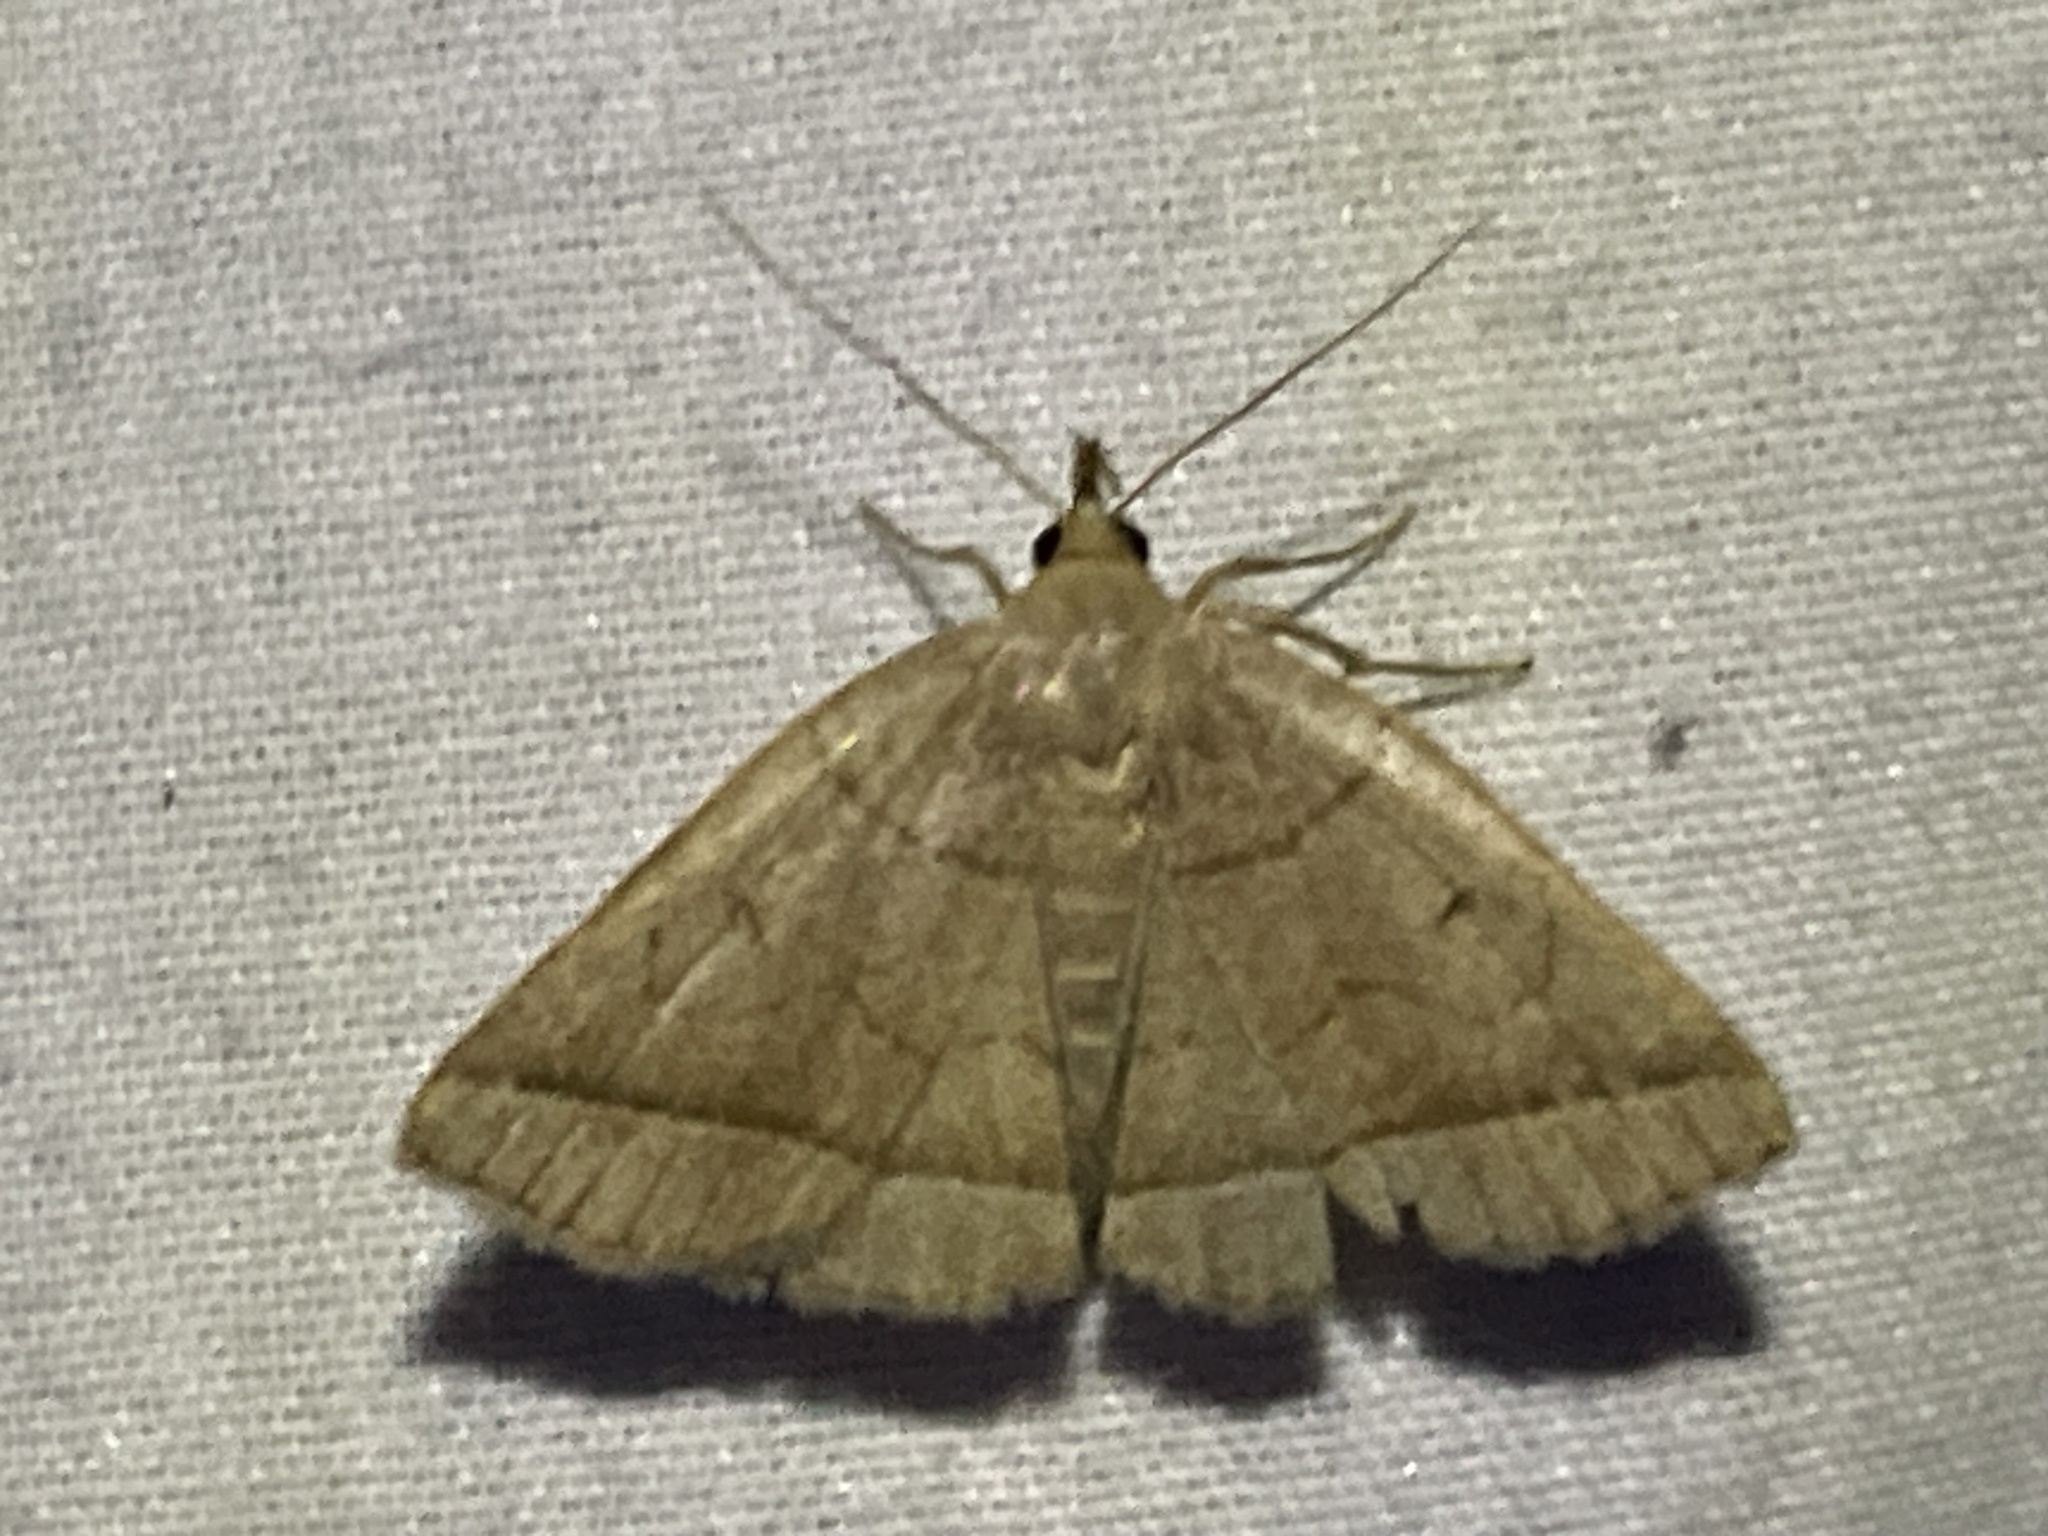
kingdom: Animalia
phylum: Arthropoda
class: Insecta
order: Lepidoptera
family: Erebidae
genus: Zanclognatha
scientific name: Zanclognatha cruralis
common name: Early fan-foot
